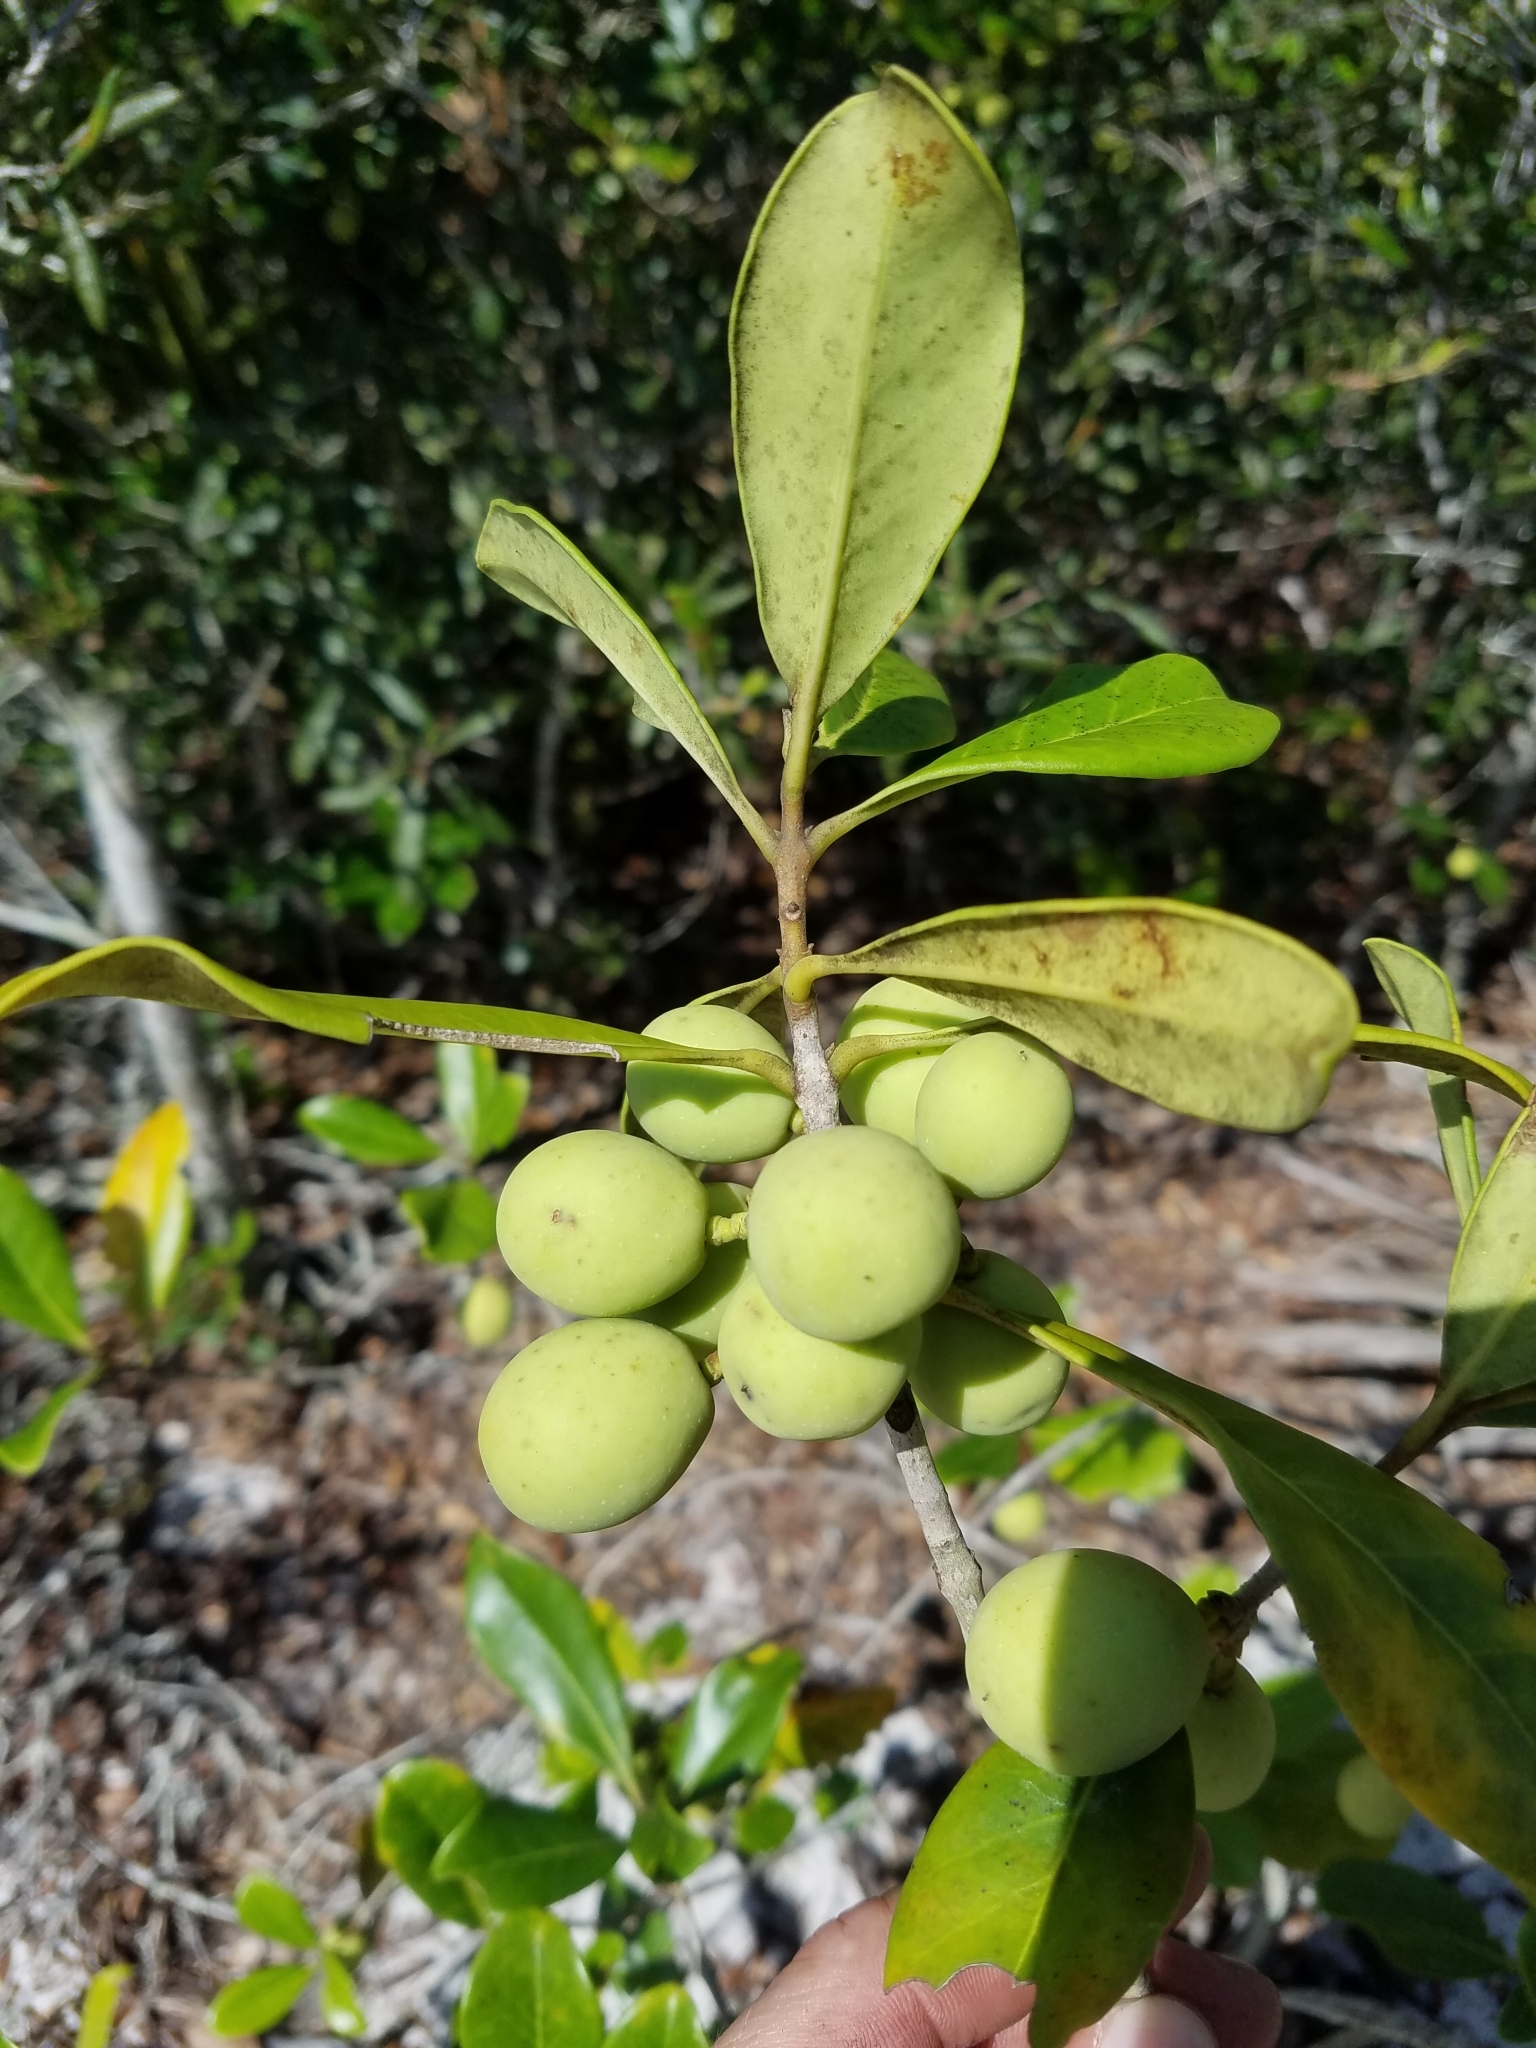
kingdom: Plantae
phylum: Tracheophyta
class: Magnoliopsida
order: Lamiales
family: Oleaceae
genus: Cartrema
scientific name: Cartrema floridana
